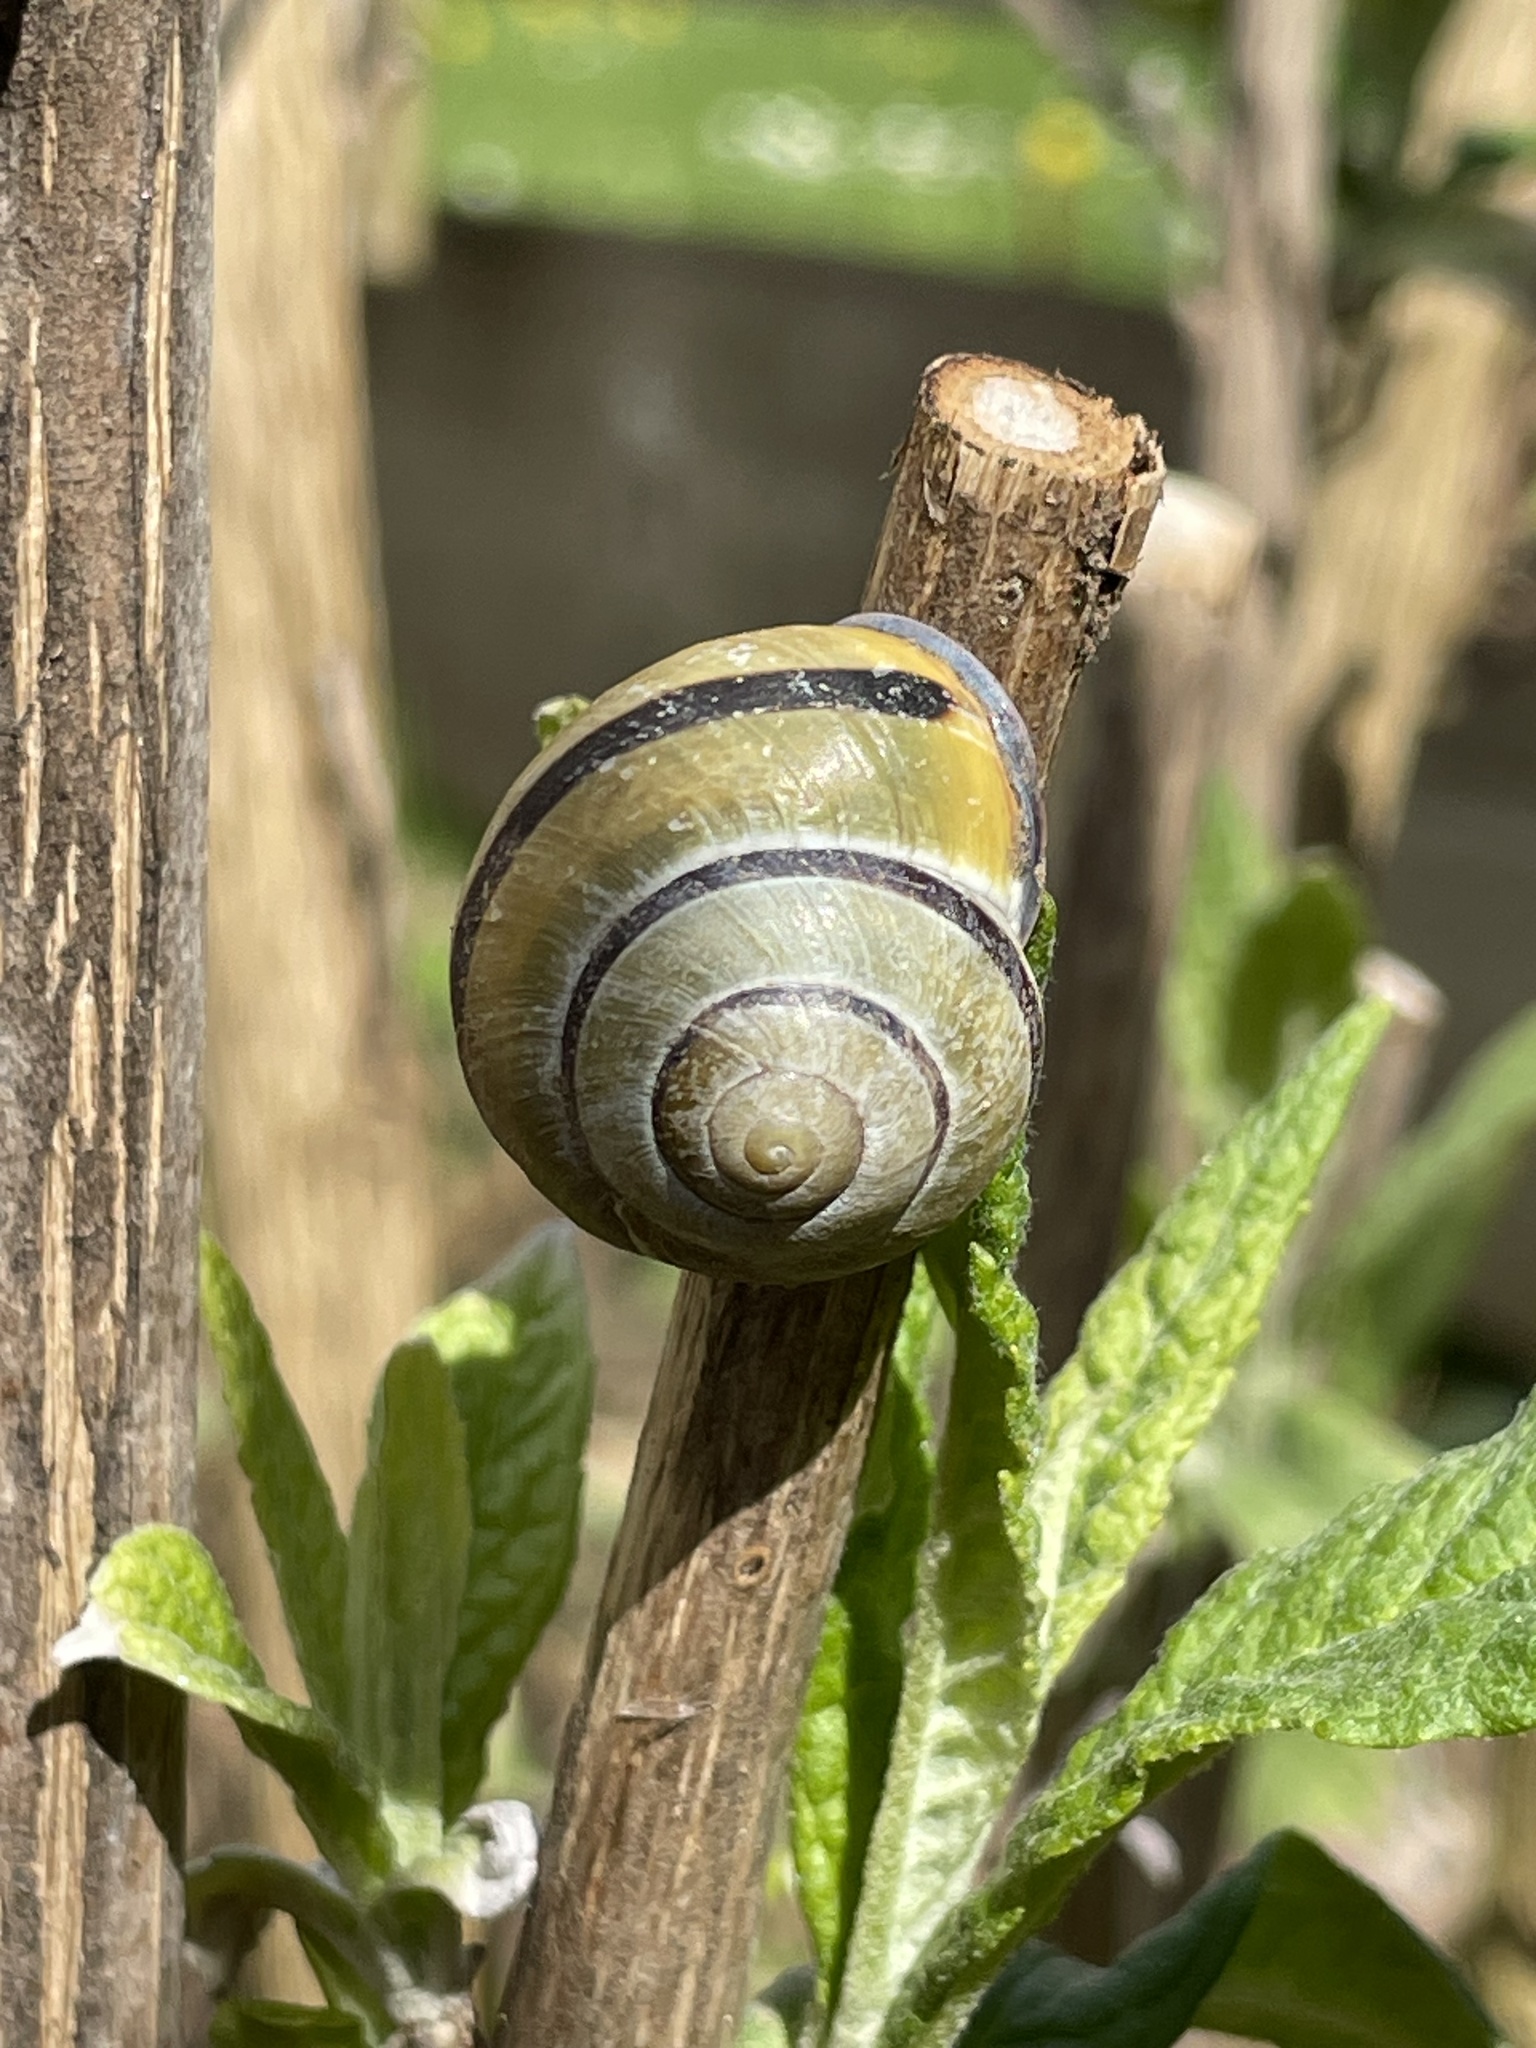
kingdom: Animalia
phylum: Mollusca
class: Gastropoda
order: Stylommatophora
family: Helicidae
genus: Cepaea
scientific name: Cepaea nemoralis
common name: Grovesnail
